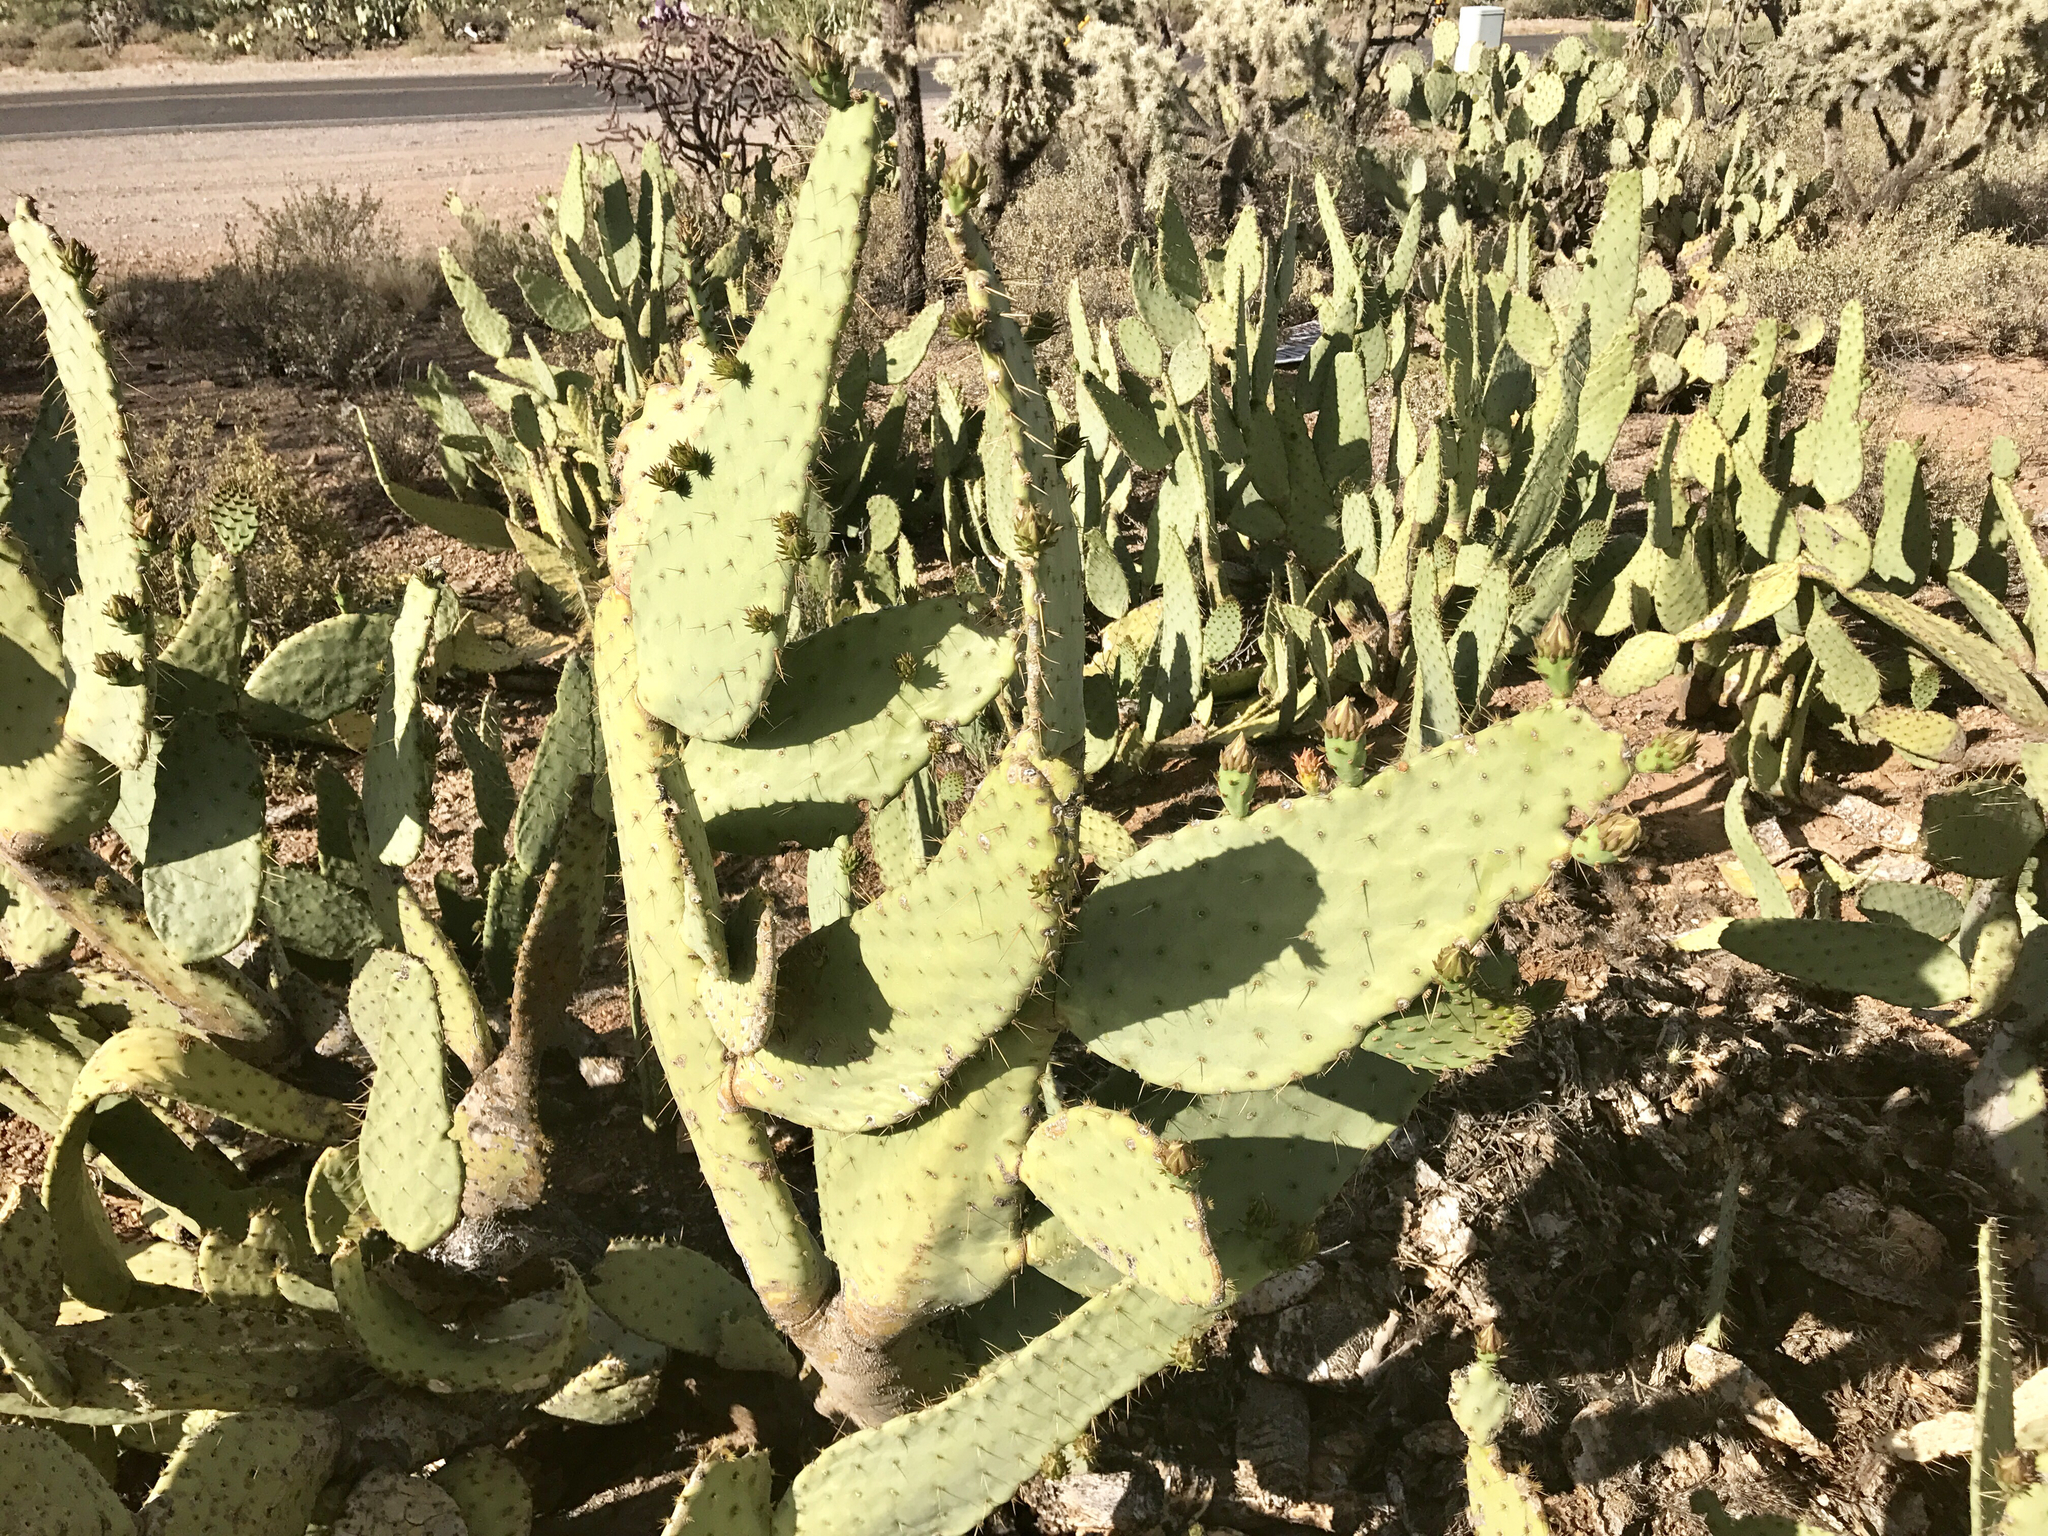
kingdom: Plantae
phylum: Tracheophyta
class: Magnoliopsida
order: Caryophyllales
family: Cactaceae
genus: Opuntia
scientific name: Opuntia engelmannii
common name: Cactus-apple
